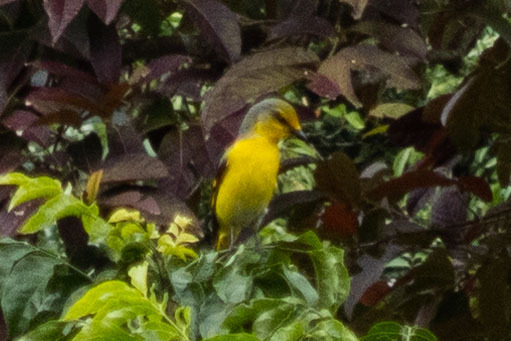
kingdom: Animalia
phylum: Chordata
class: Aves
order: Passeriformes
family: Campephagidae
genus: Pericrocotus
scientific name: Pericrocotus speciosus
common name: Scarlet minivet
